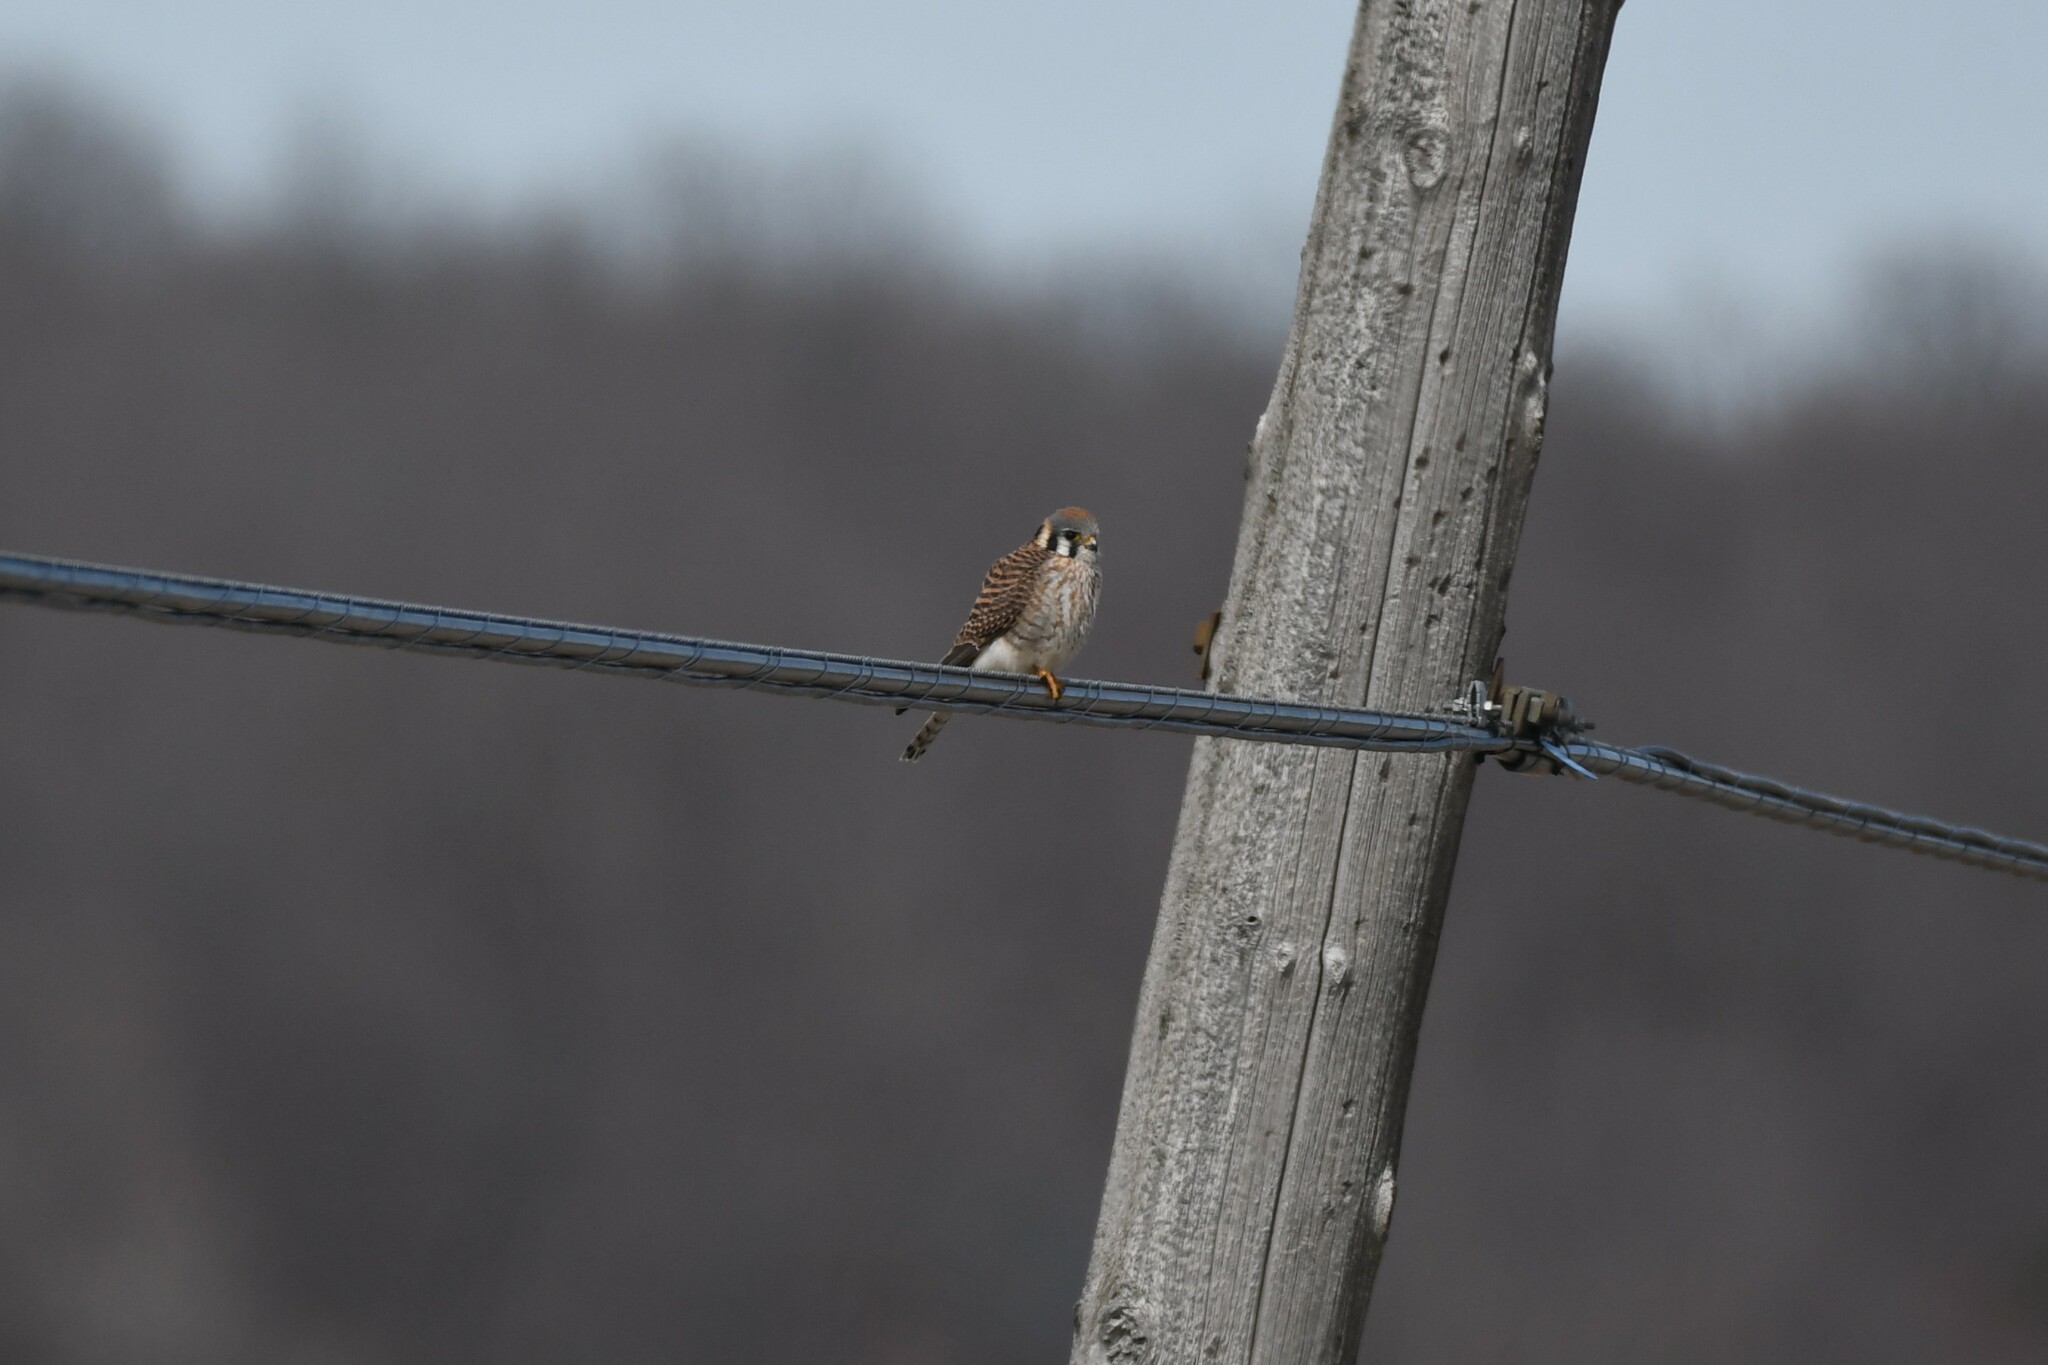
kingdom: Animalia
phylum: Chordata
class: Aves
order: Falconiformes
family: Falconidae
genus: Falco
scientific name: Falco sparverius
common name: American kestrel
